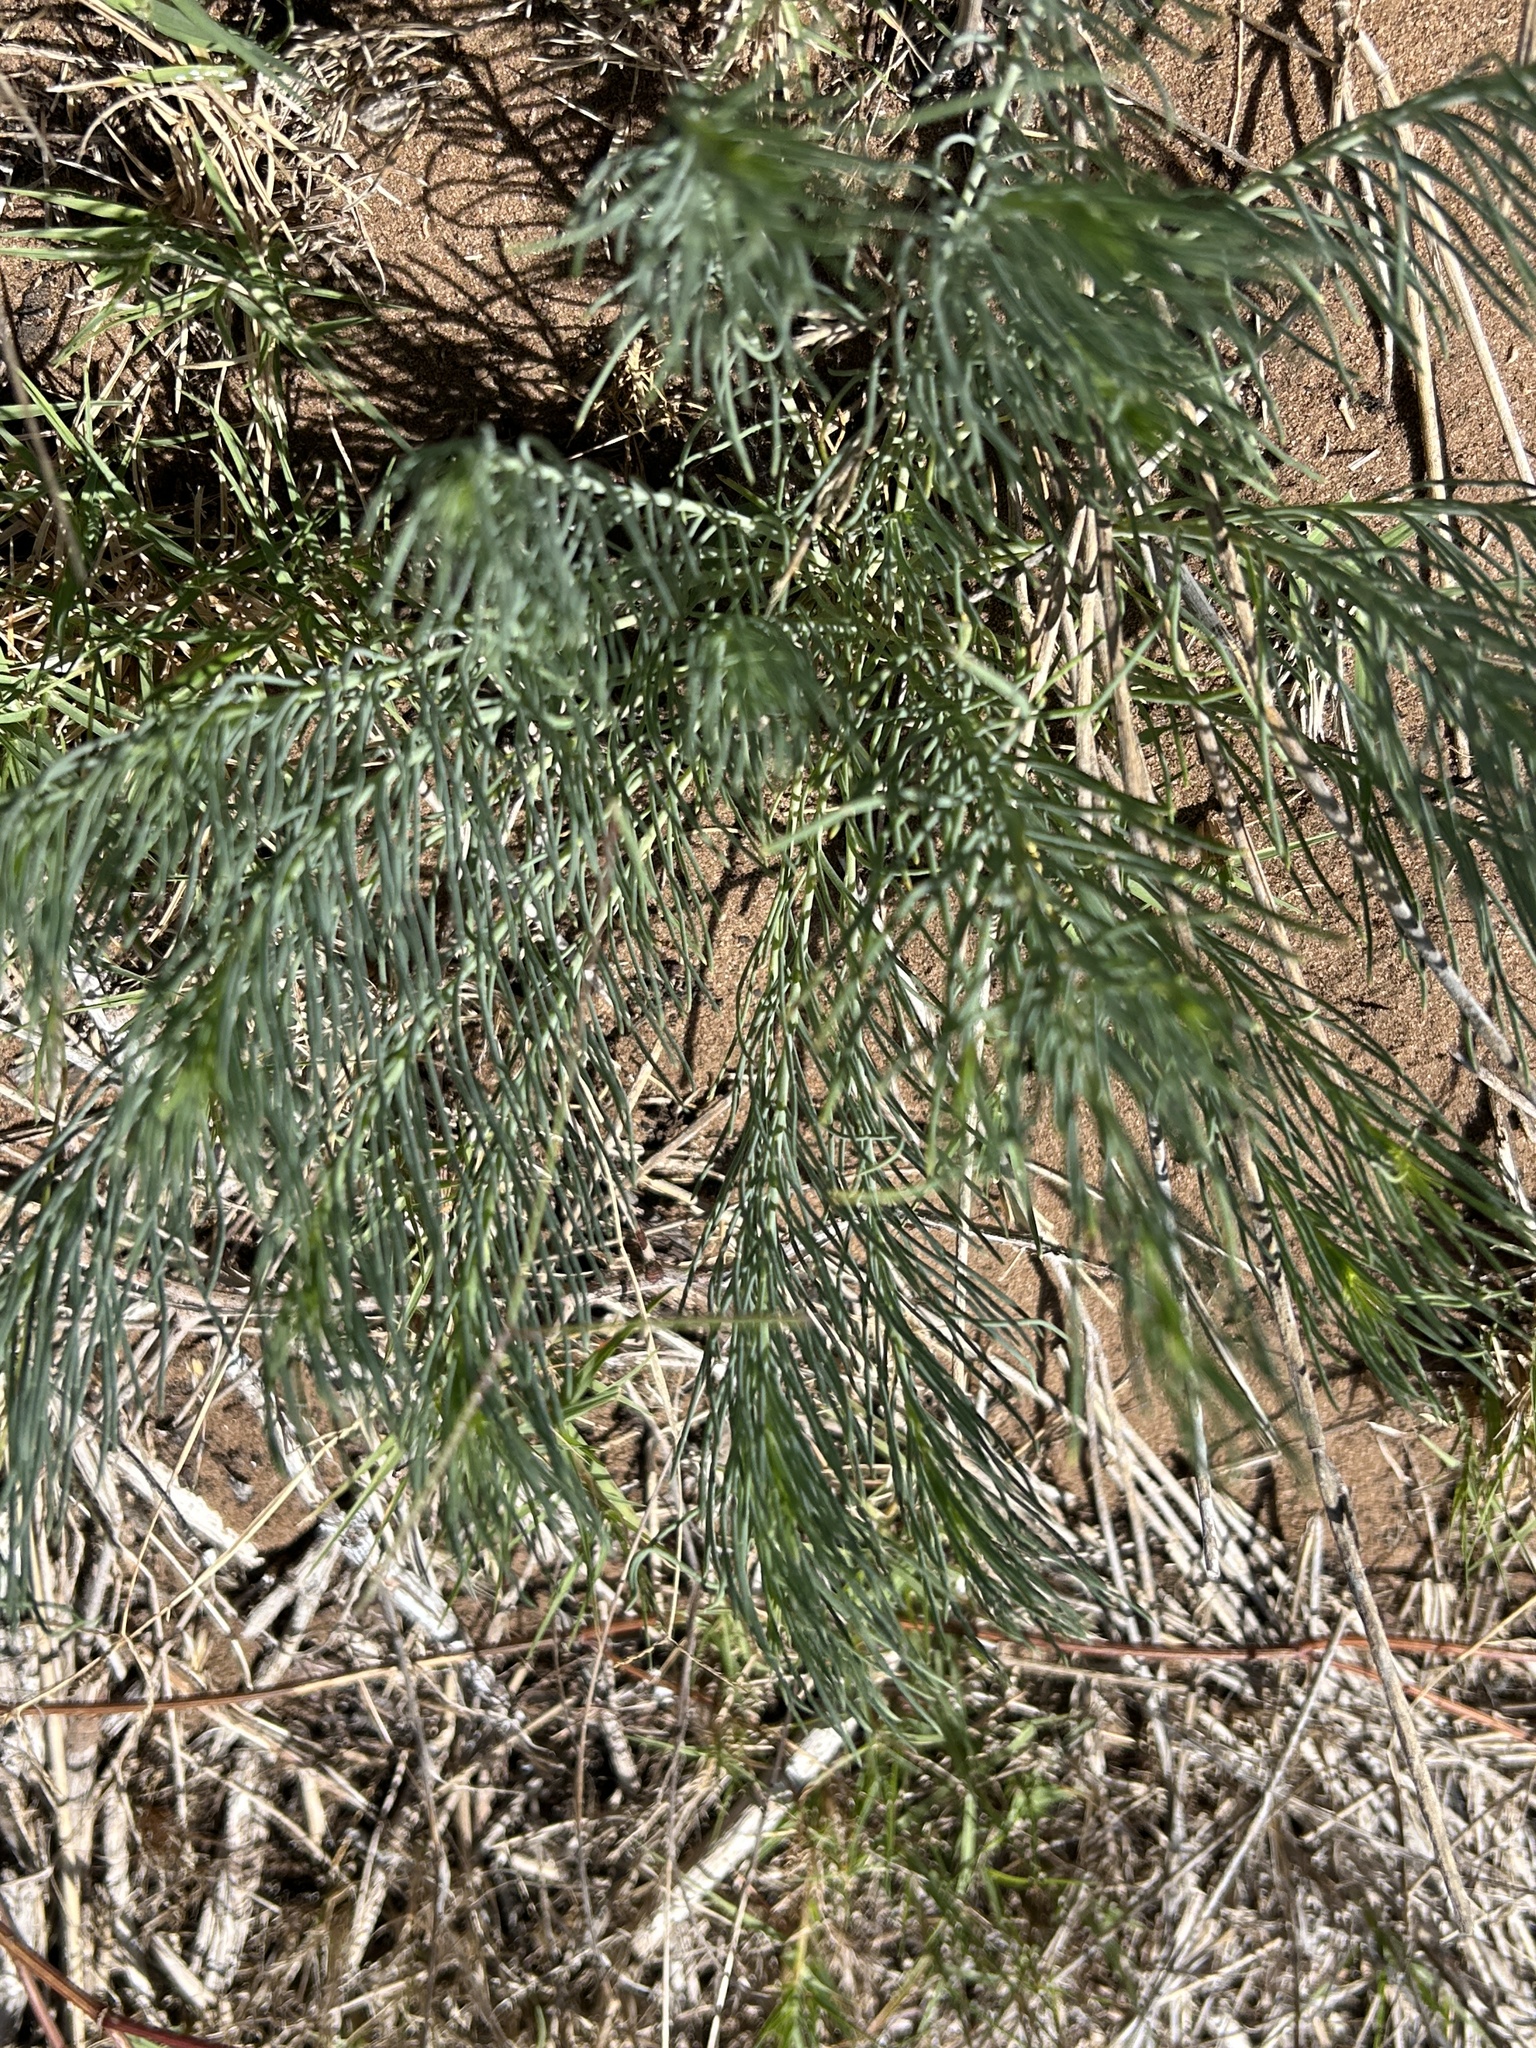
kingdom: Plantae
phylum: Tracheophyta
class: Magnoliopsida
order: Fabales
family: Fabaceae
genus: Lebeckia
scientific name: Lebeckia gracilis
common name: Slender ganna
